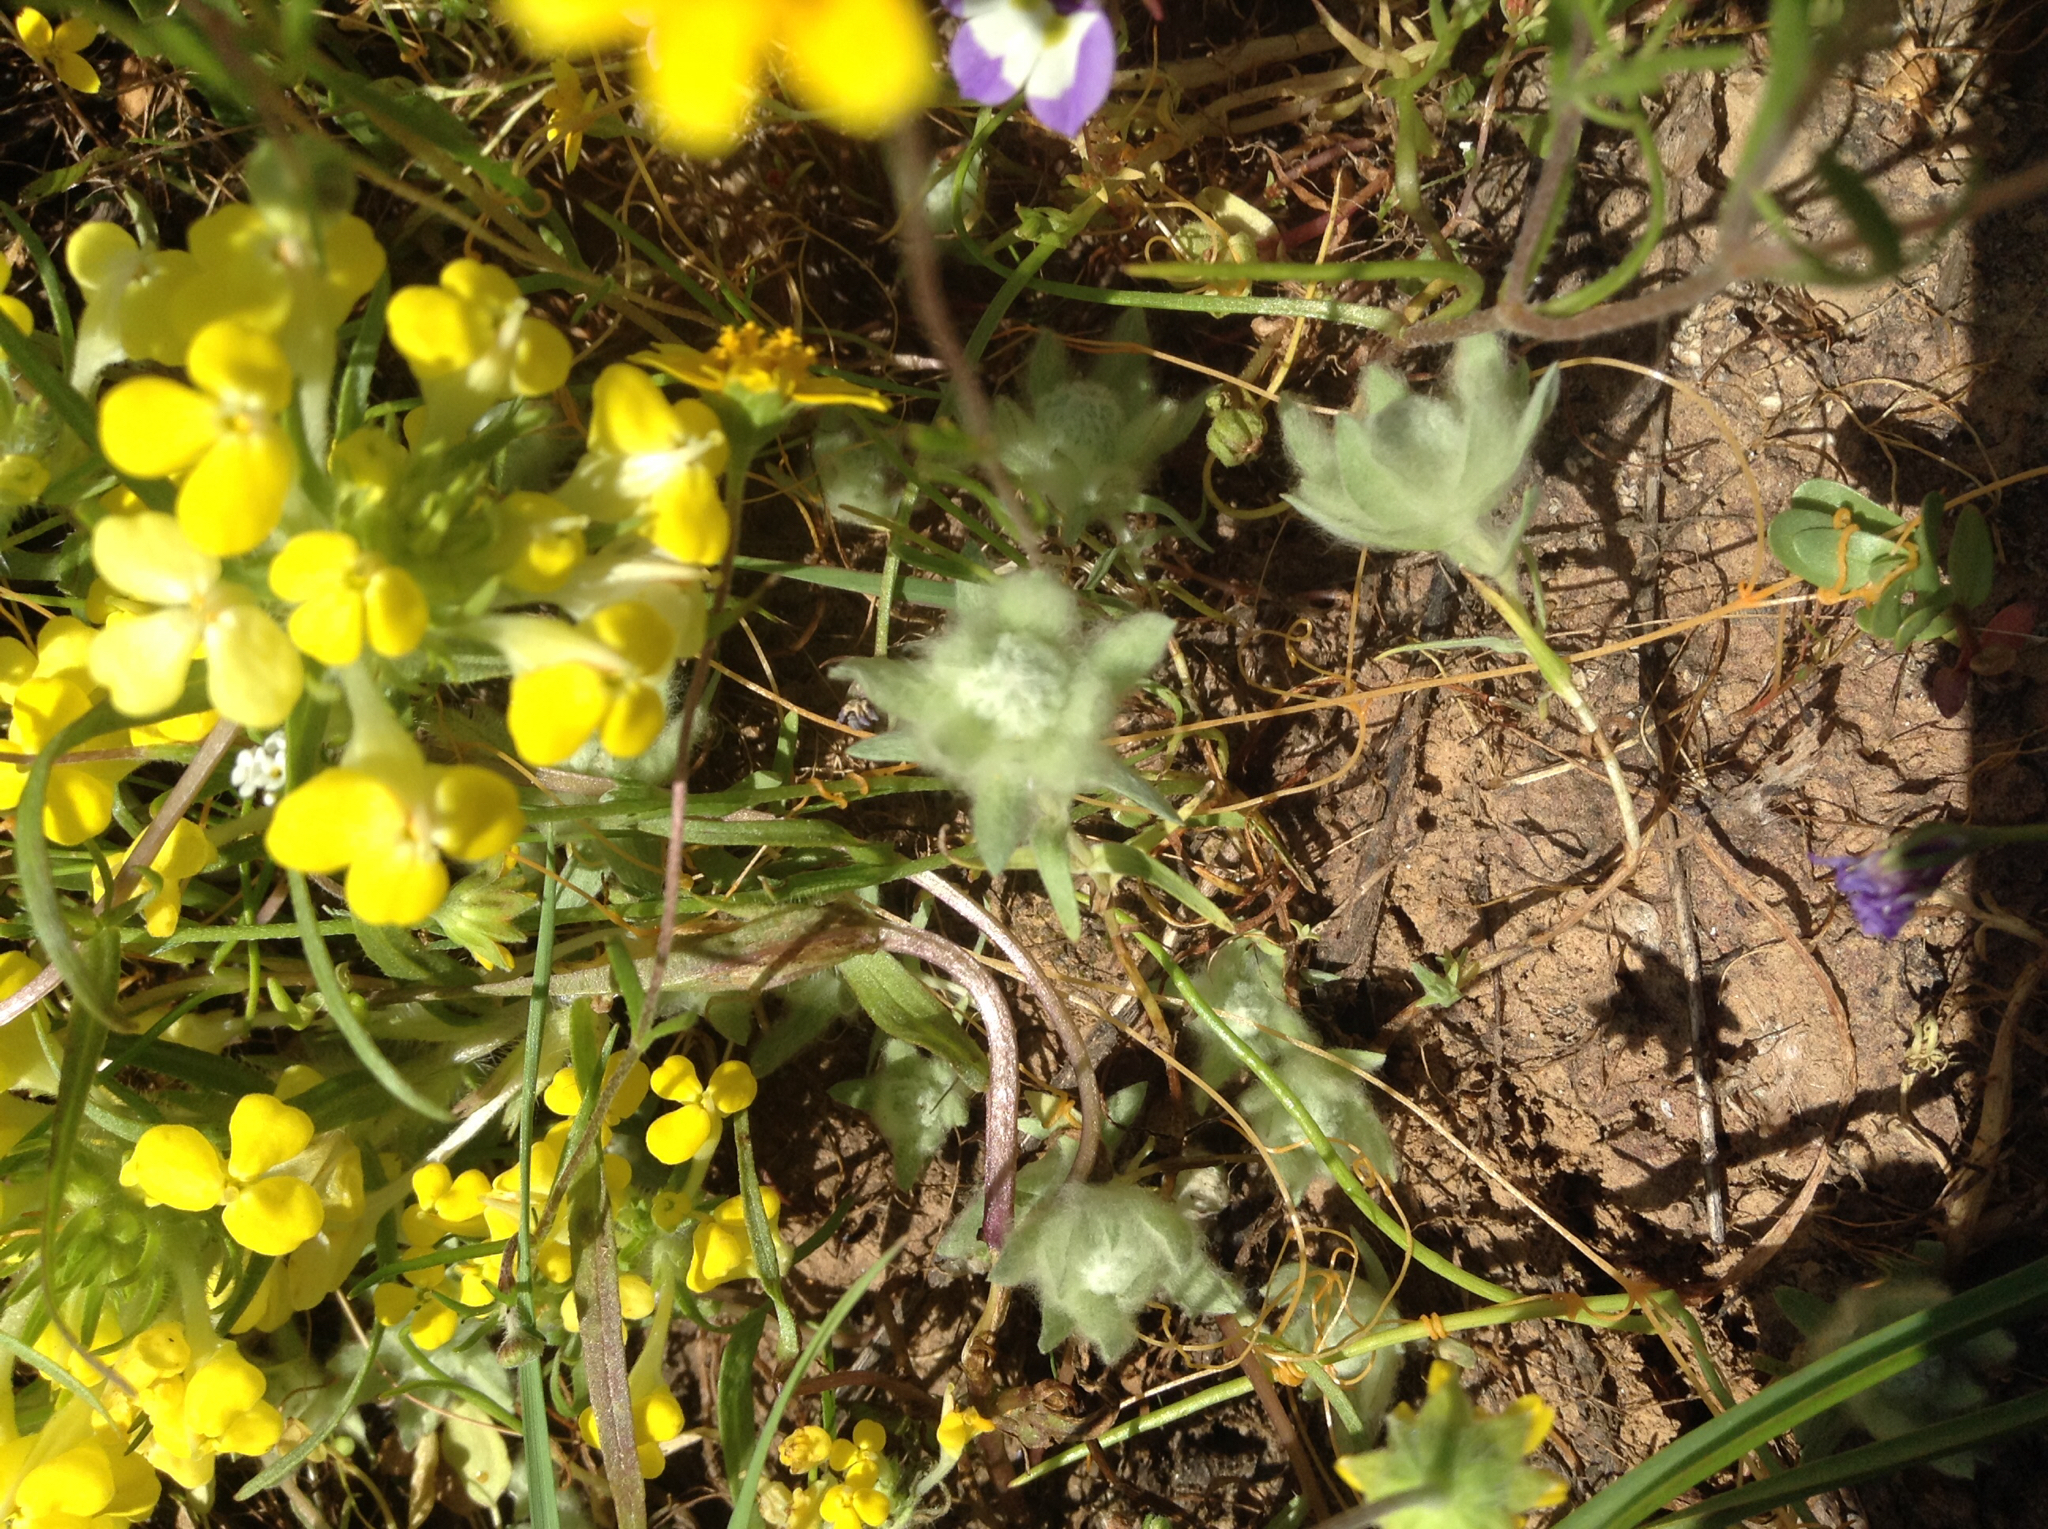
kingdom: Plantae
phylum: Tracheophyta
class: Magnoliopsida
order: Asterales
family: Asteraceae
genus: Psilocarphus
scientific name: Psilocarphus brevissimus
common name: Dwarf woollyheads
